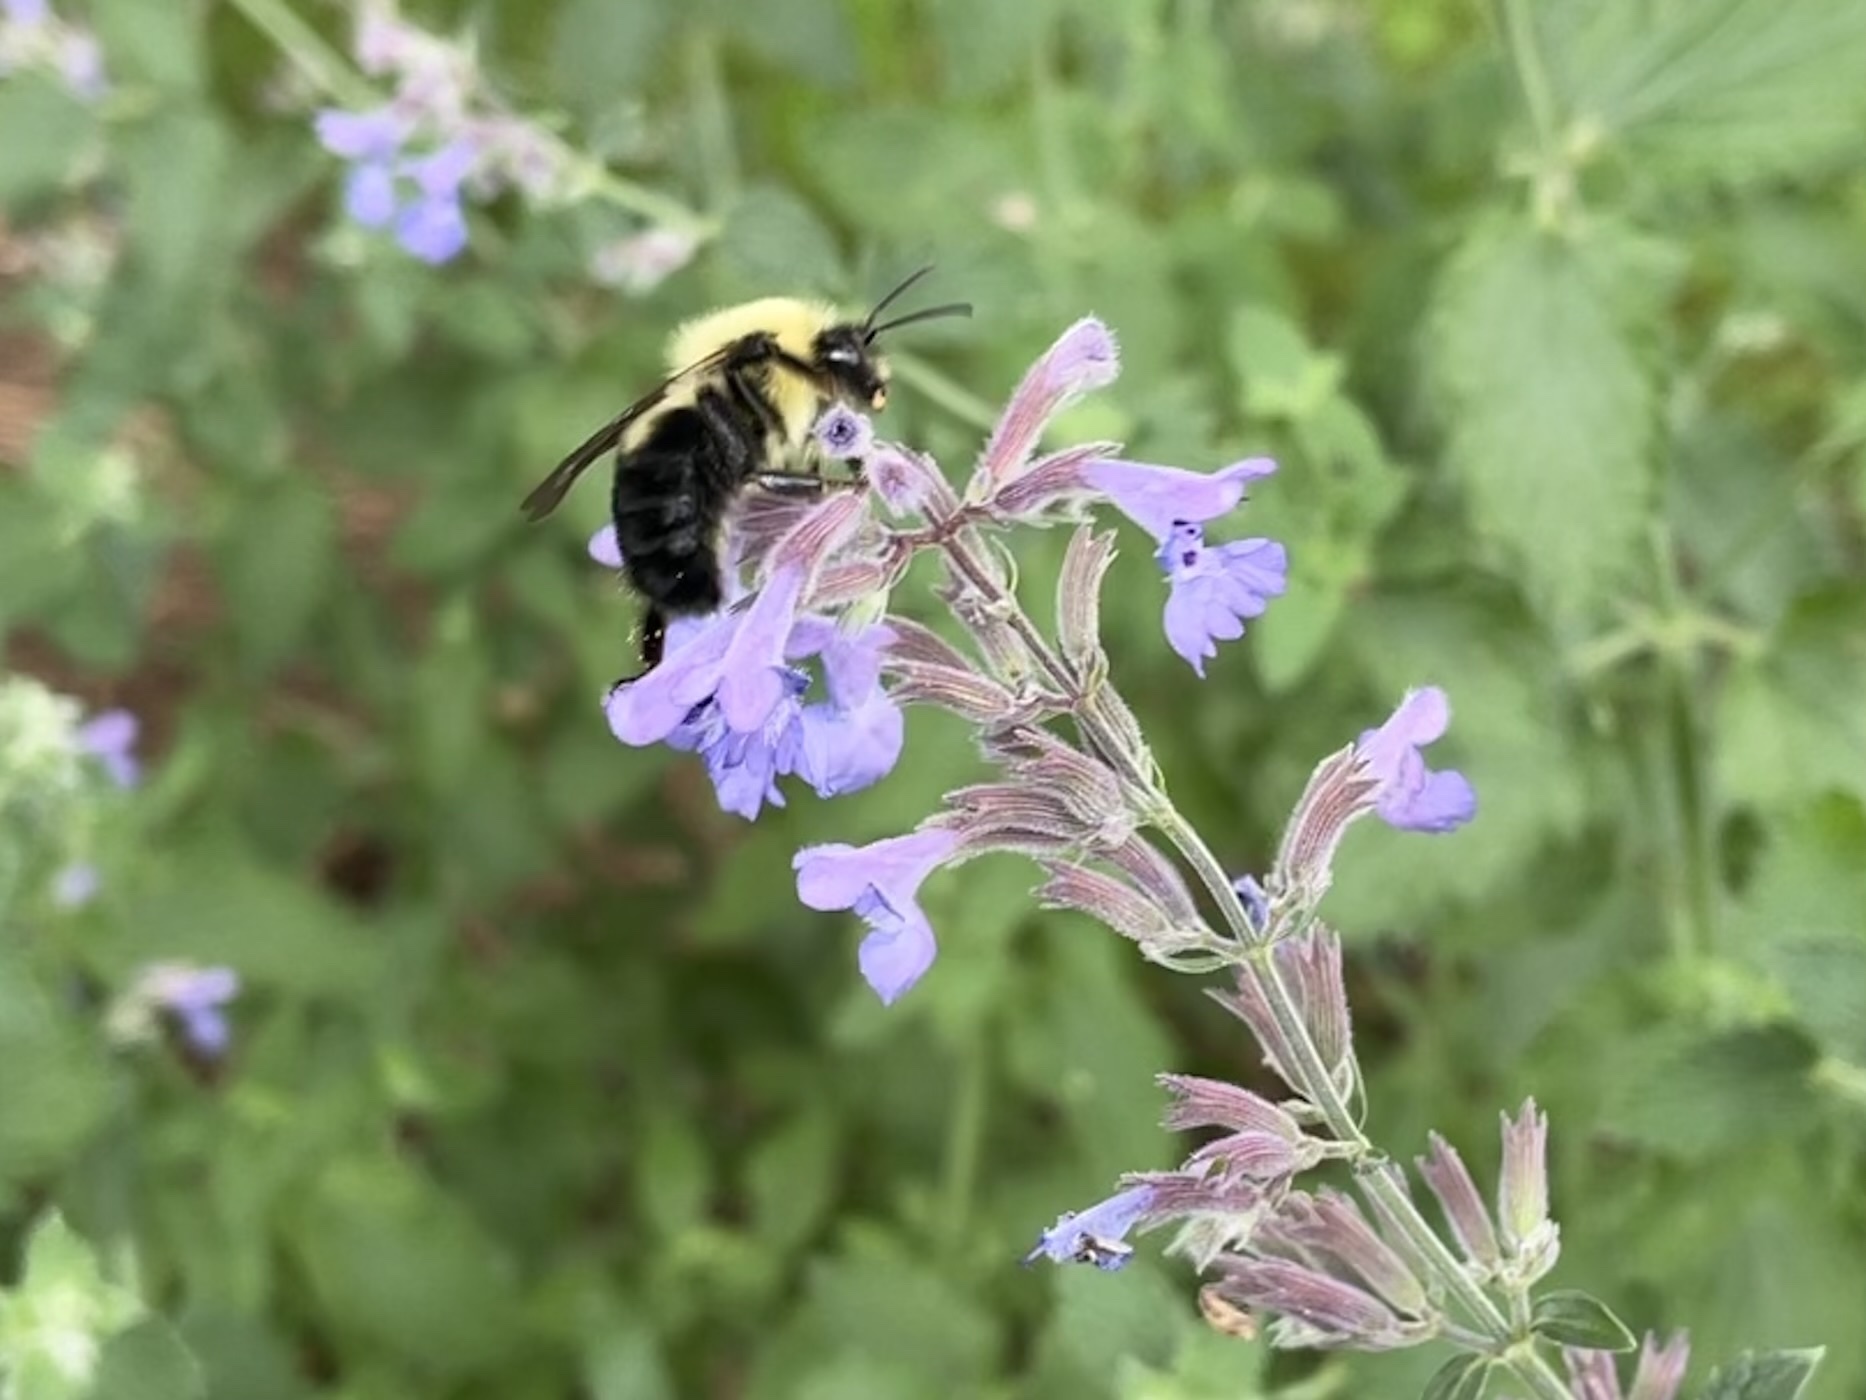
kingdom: Animalia
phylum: Arthropoda
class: Insecta
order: Hymenoptera
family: Apidae
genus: Bombus
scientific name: Bombus bimaculatus
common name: Two-spotted bumble bee
